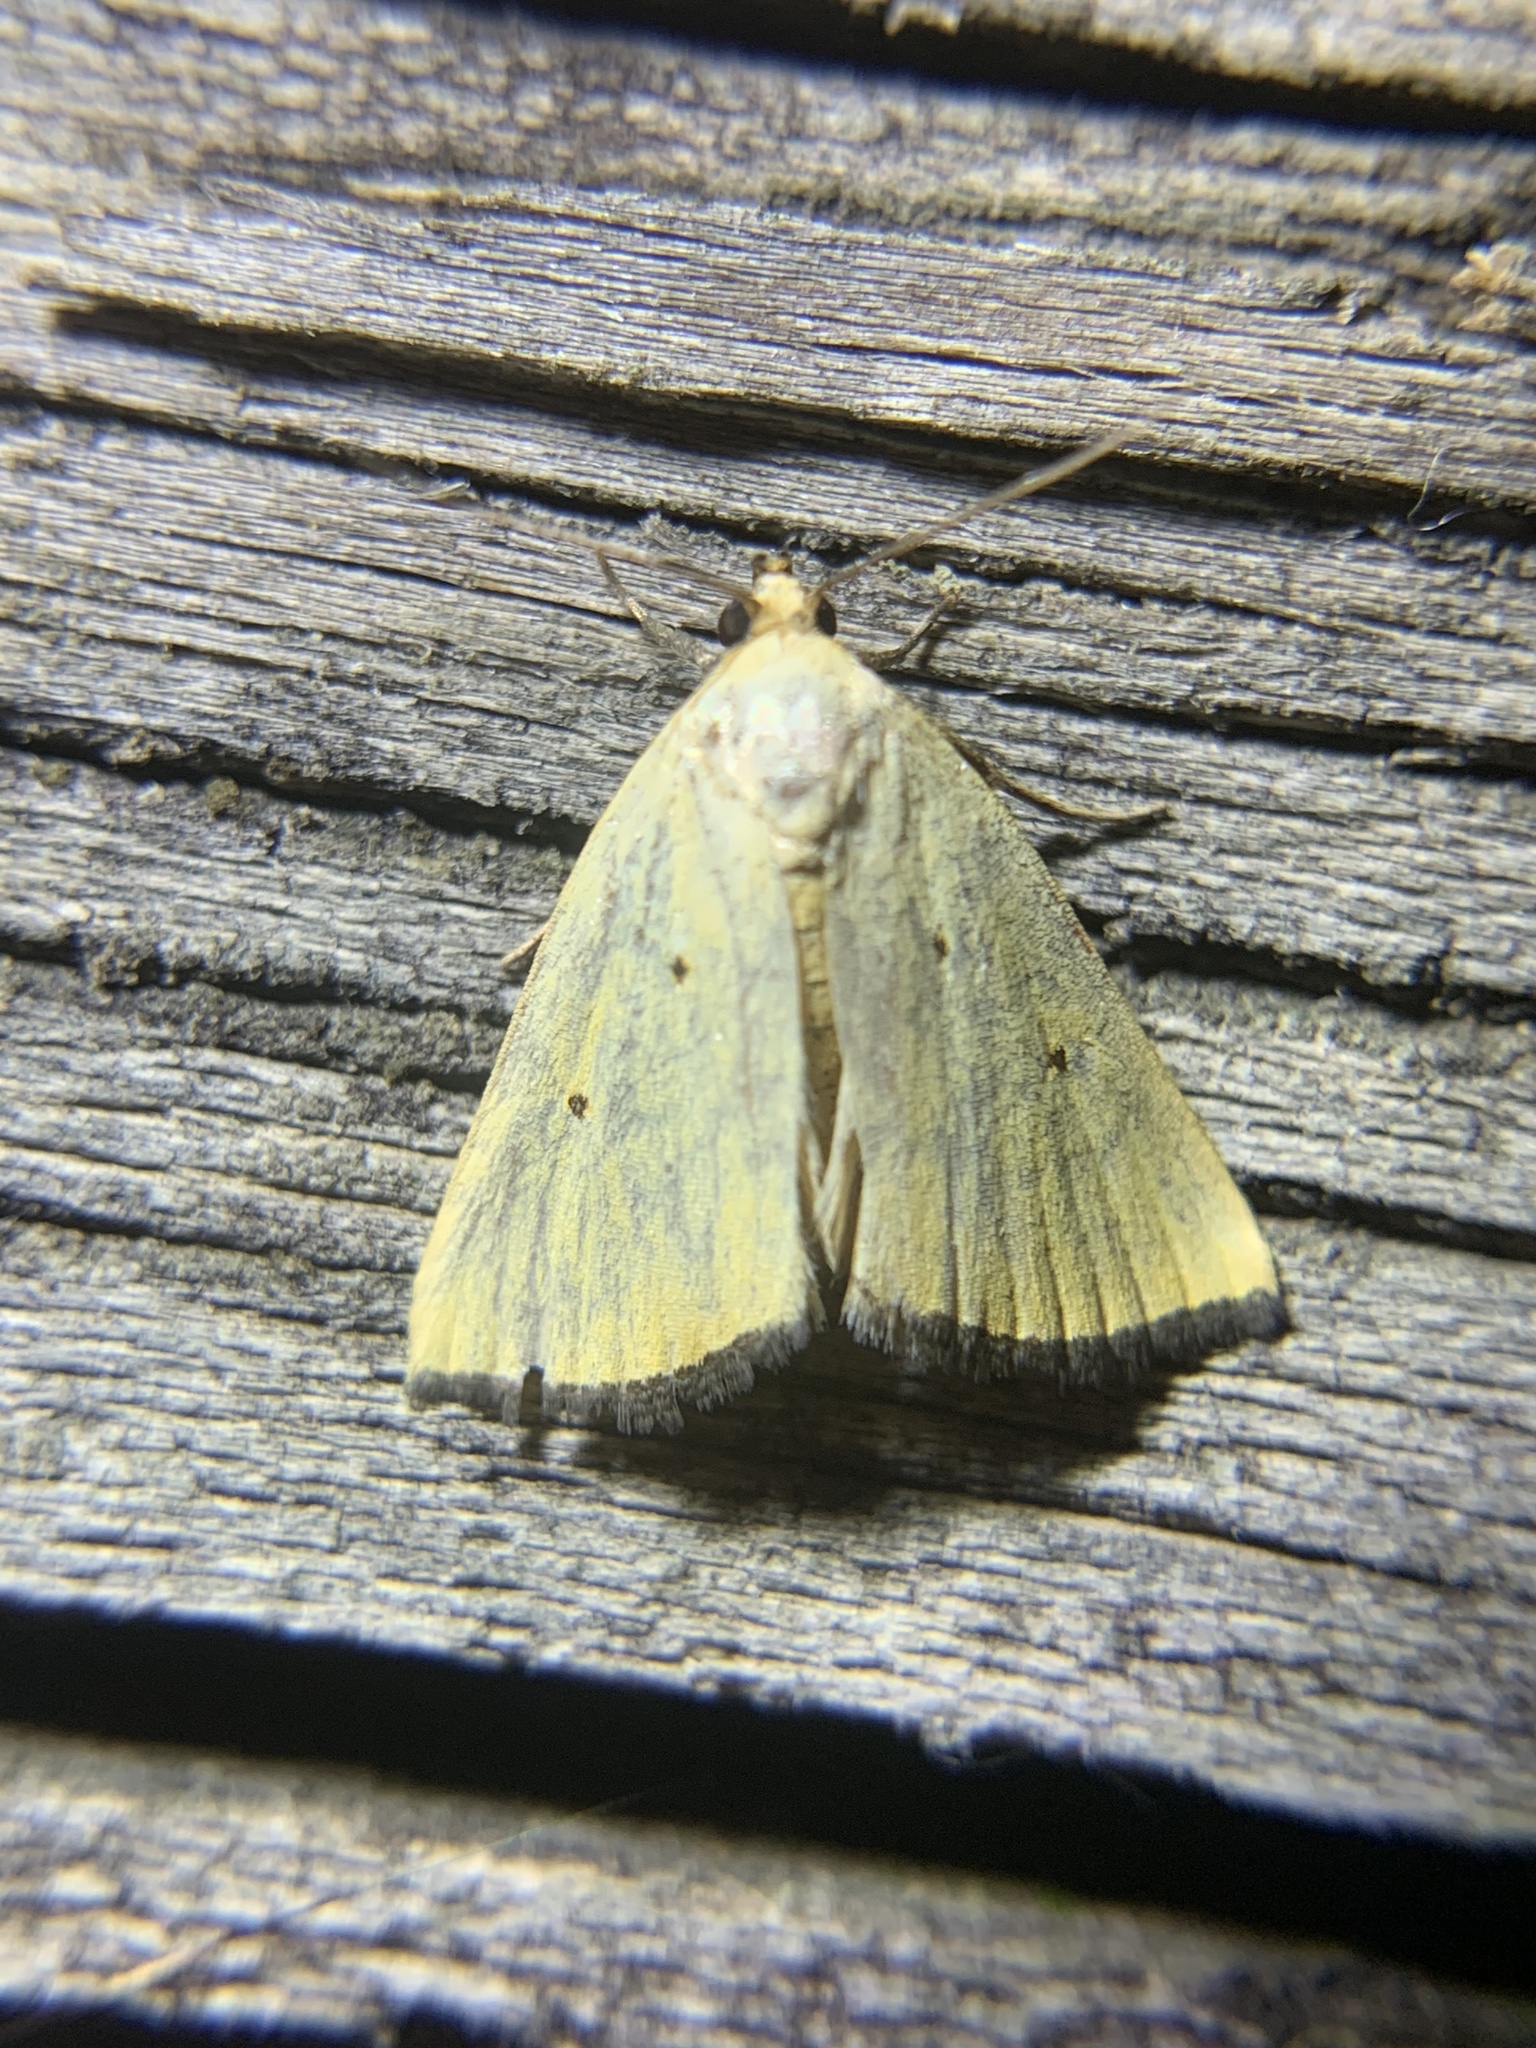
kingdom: Animalia
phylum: Arthropoda
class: Insecta
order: Lepidoptera
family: Noctuidae
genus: Marimatha
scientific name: Marimatha nigrofimbria
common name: Black-bordered lemon moth
